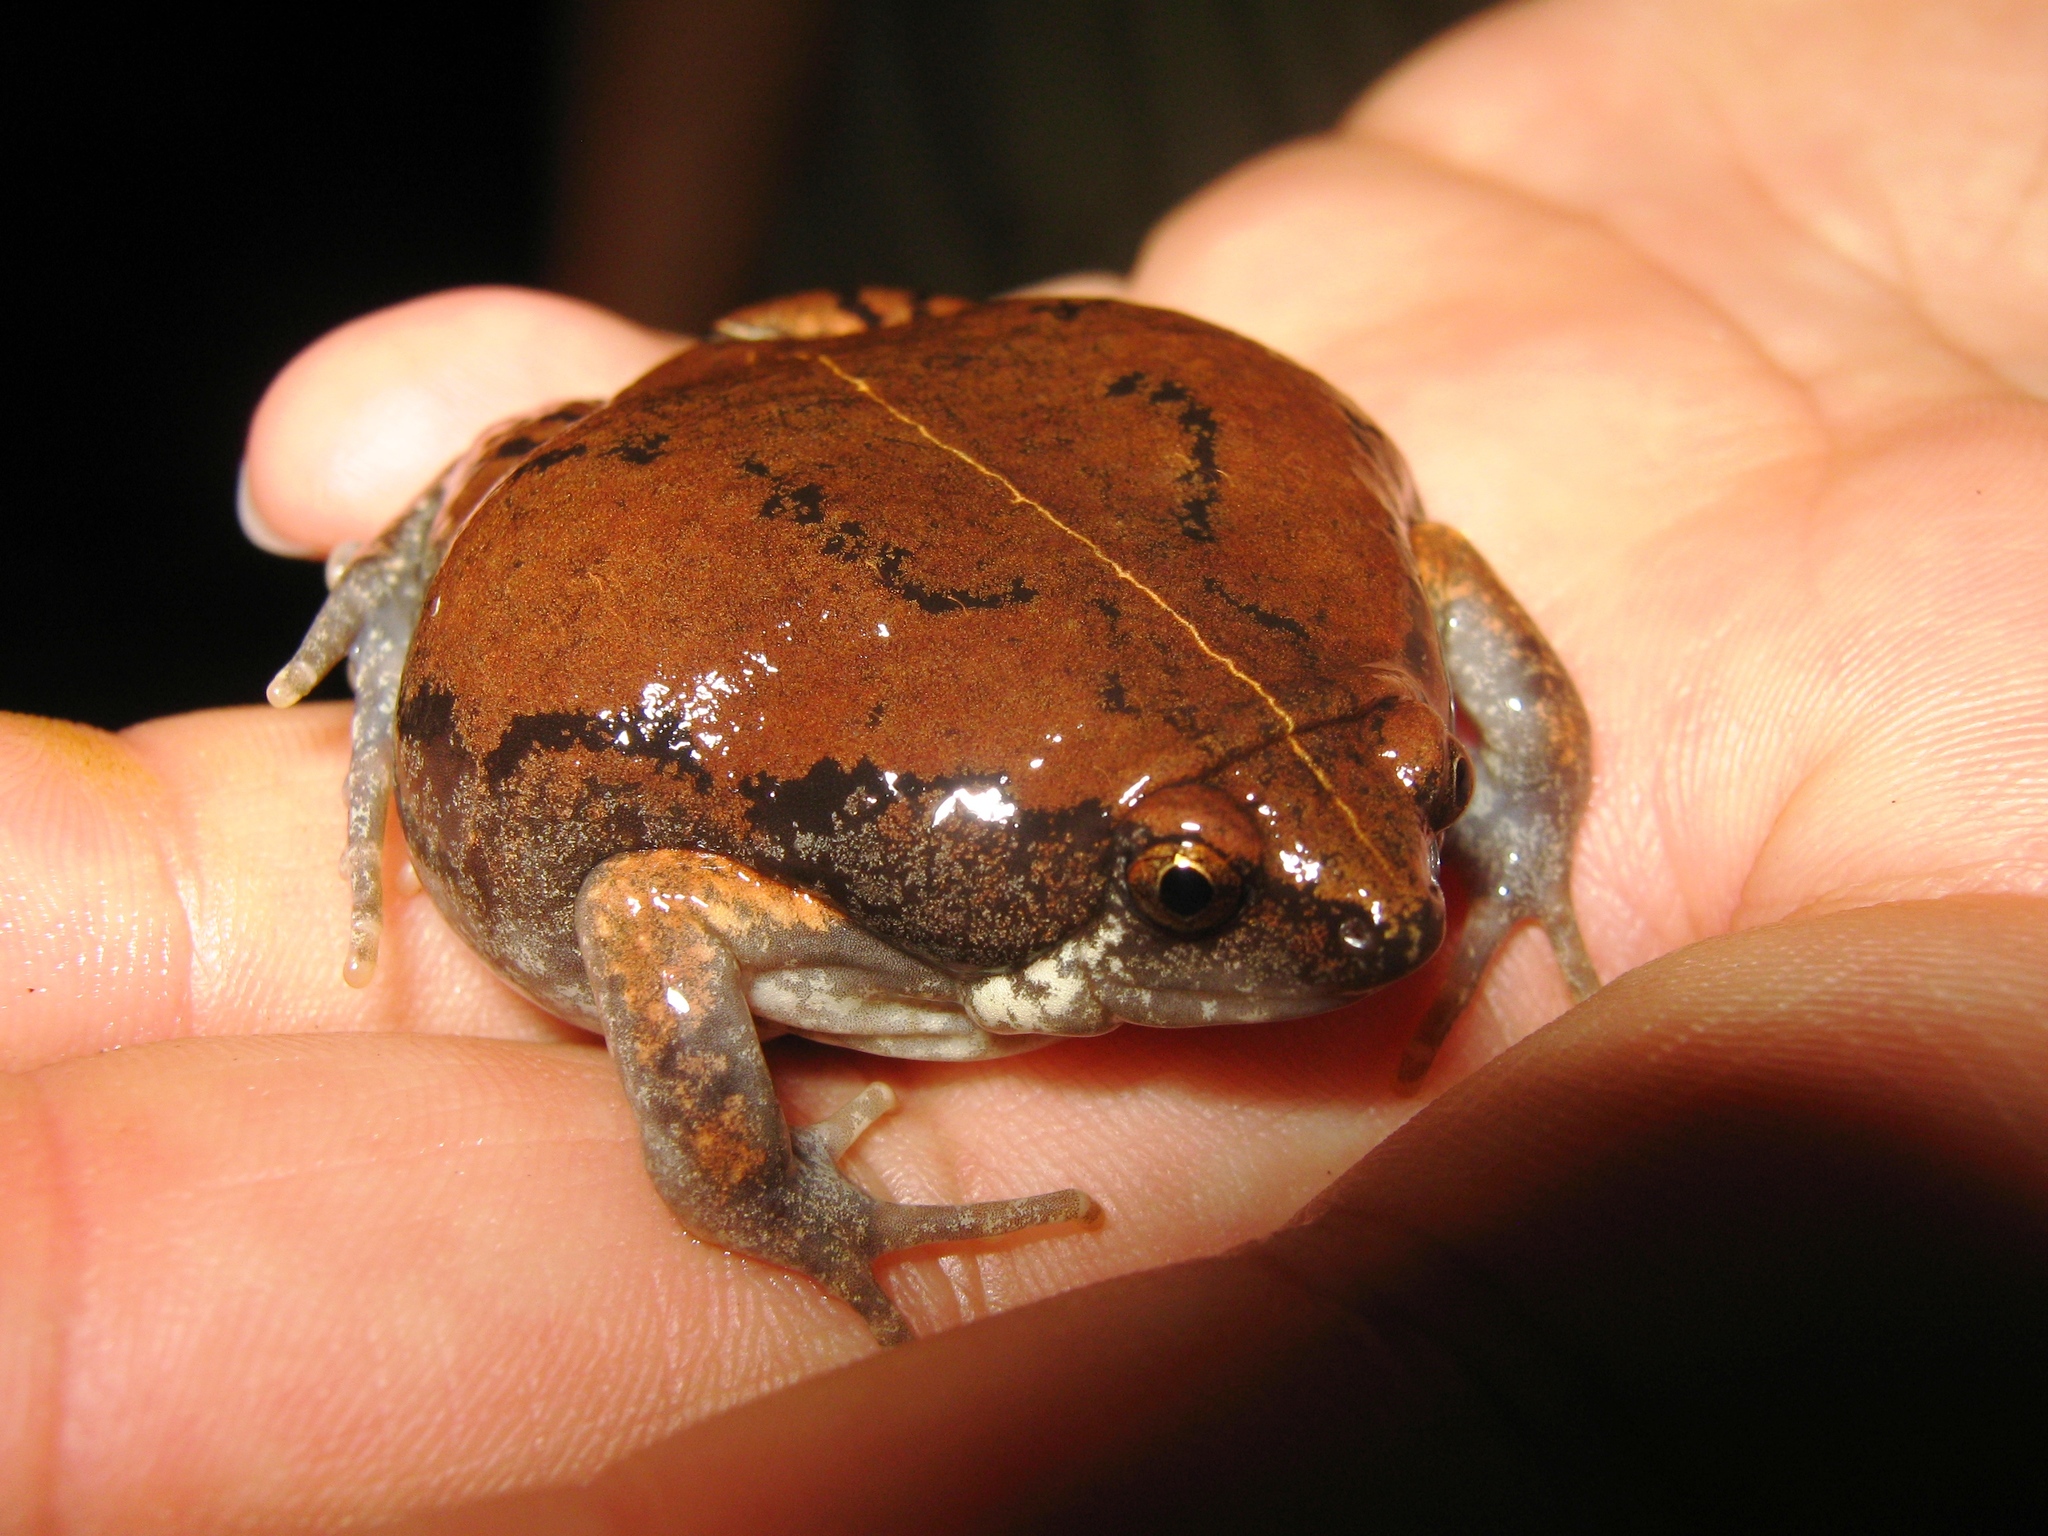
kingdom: Animalia
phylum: Chordata
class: Amphibia
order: Anura
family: Microhylidae
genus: Hypopachus
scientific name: Hypopachus variolosus
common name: Sheep frog
